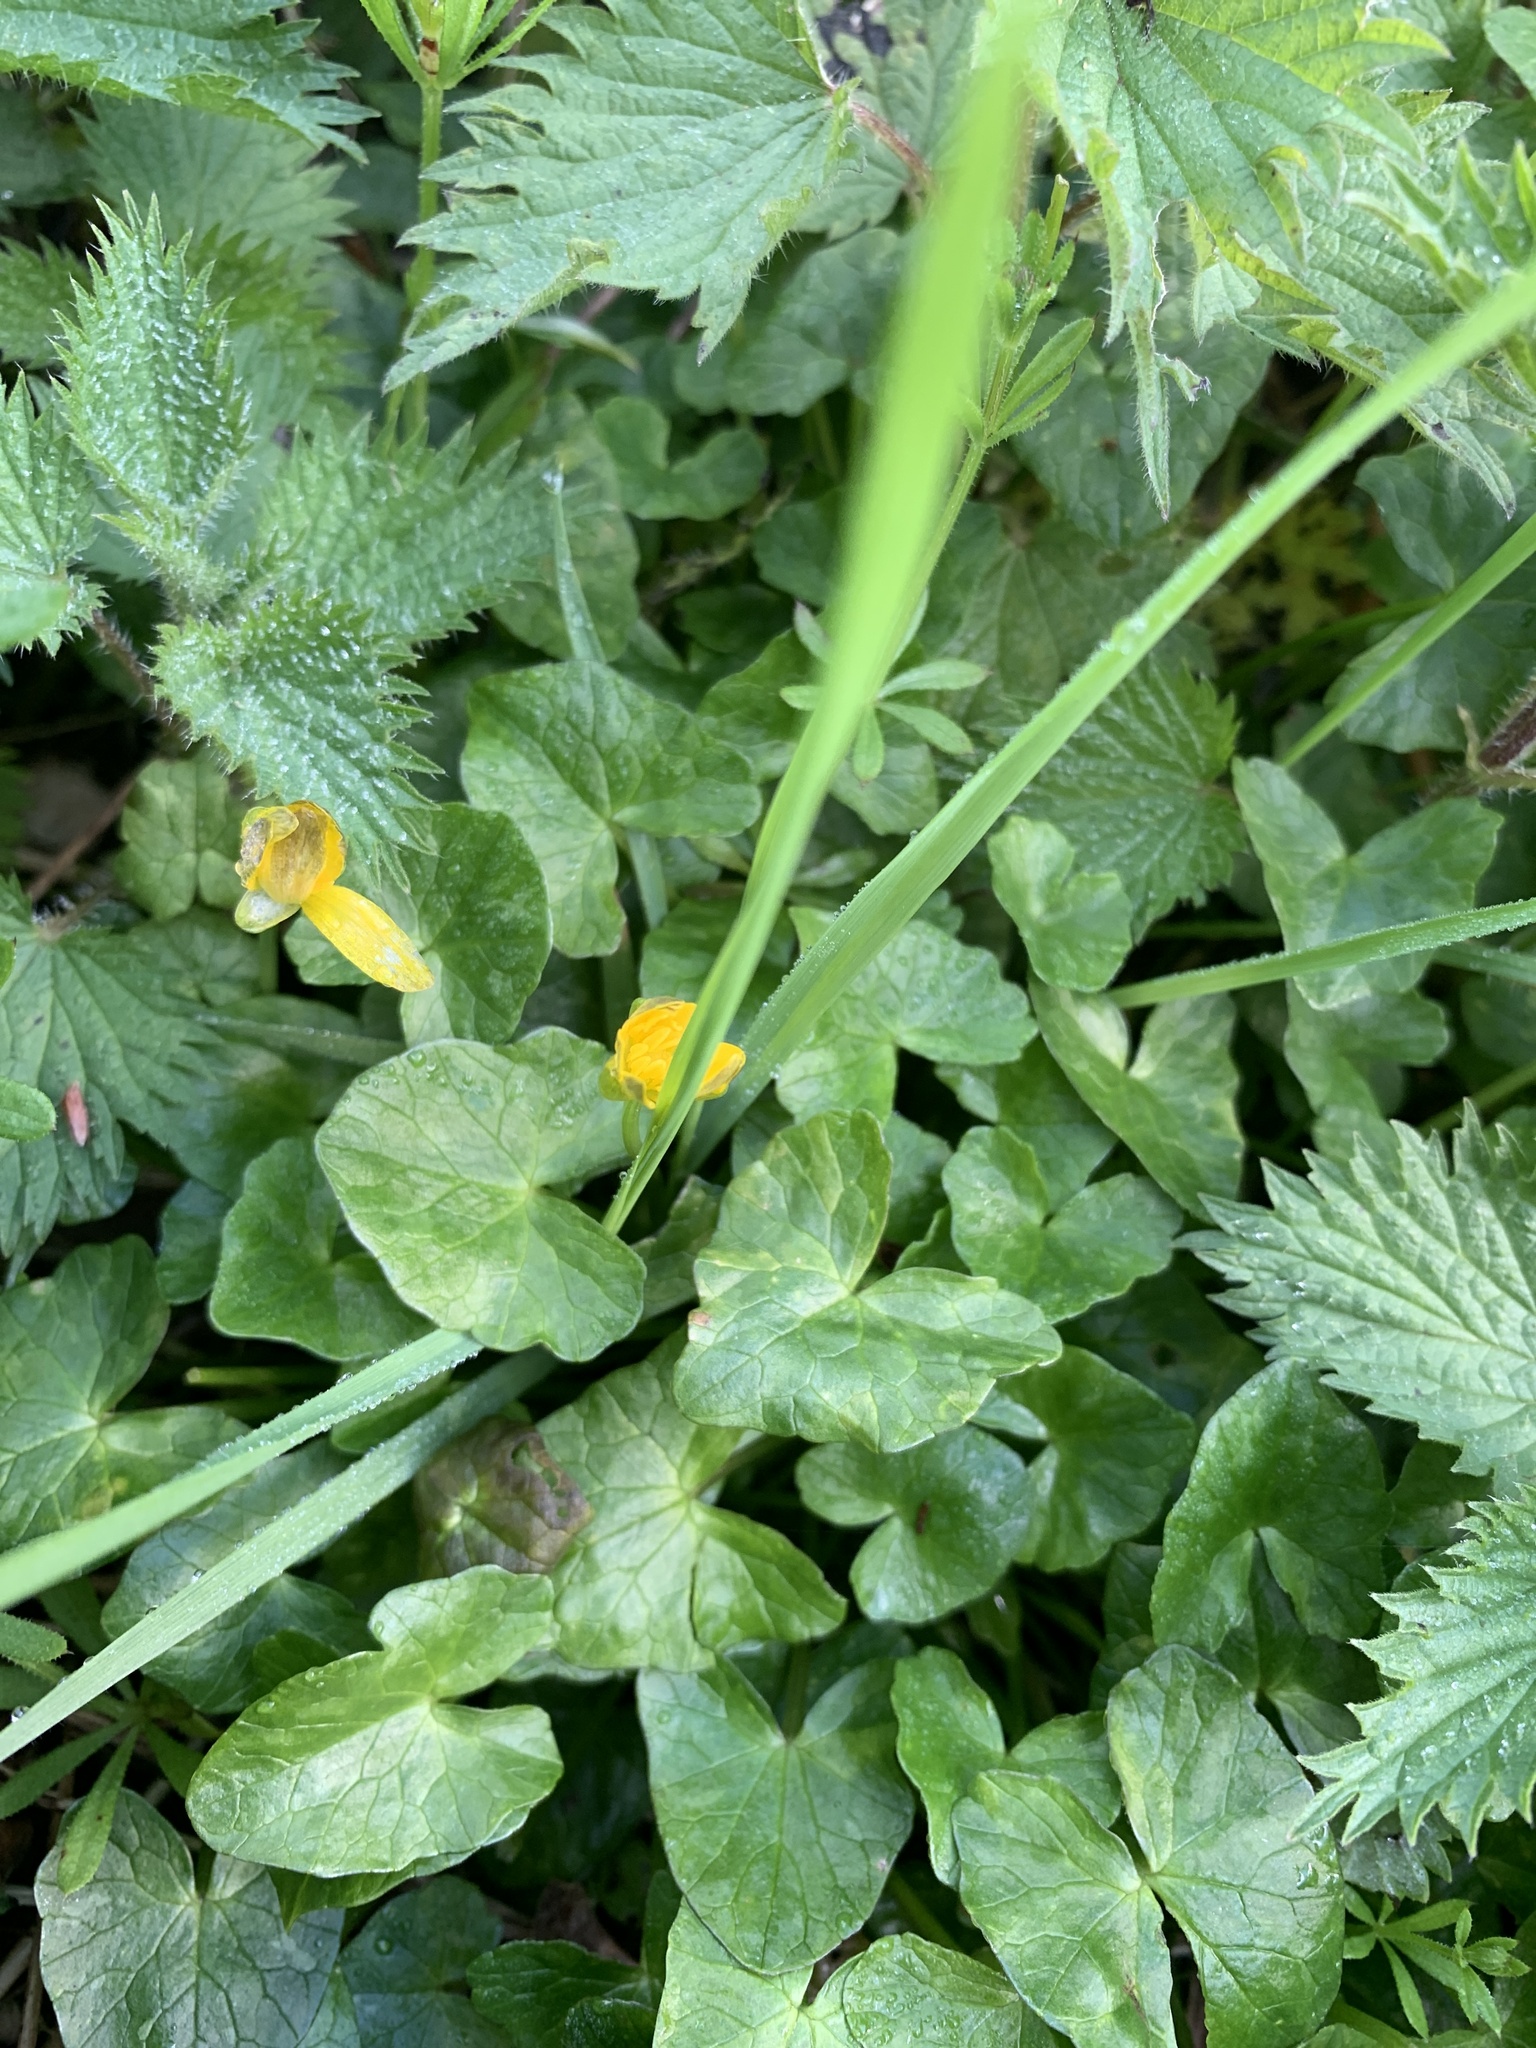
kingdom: Plantae
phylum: Tracheophyta
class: Magnoliopsida
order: Ranunculales
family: Ranunculaceae
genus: Ficaria
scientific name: Ficaria verna
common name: Lesser celandine
